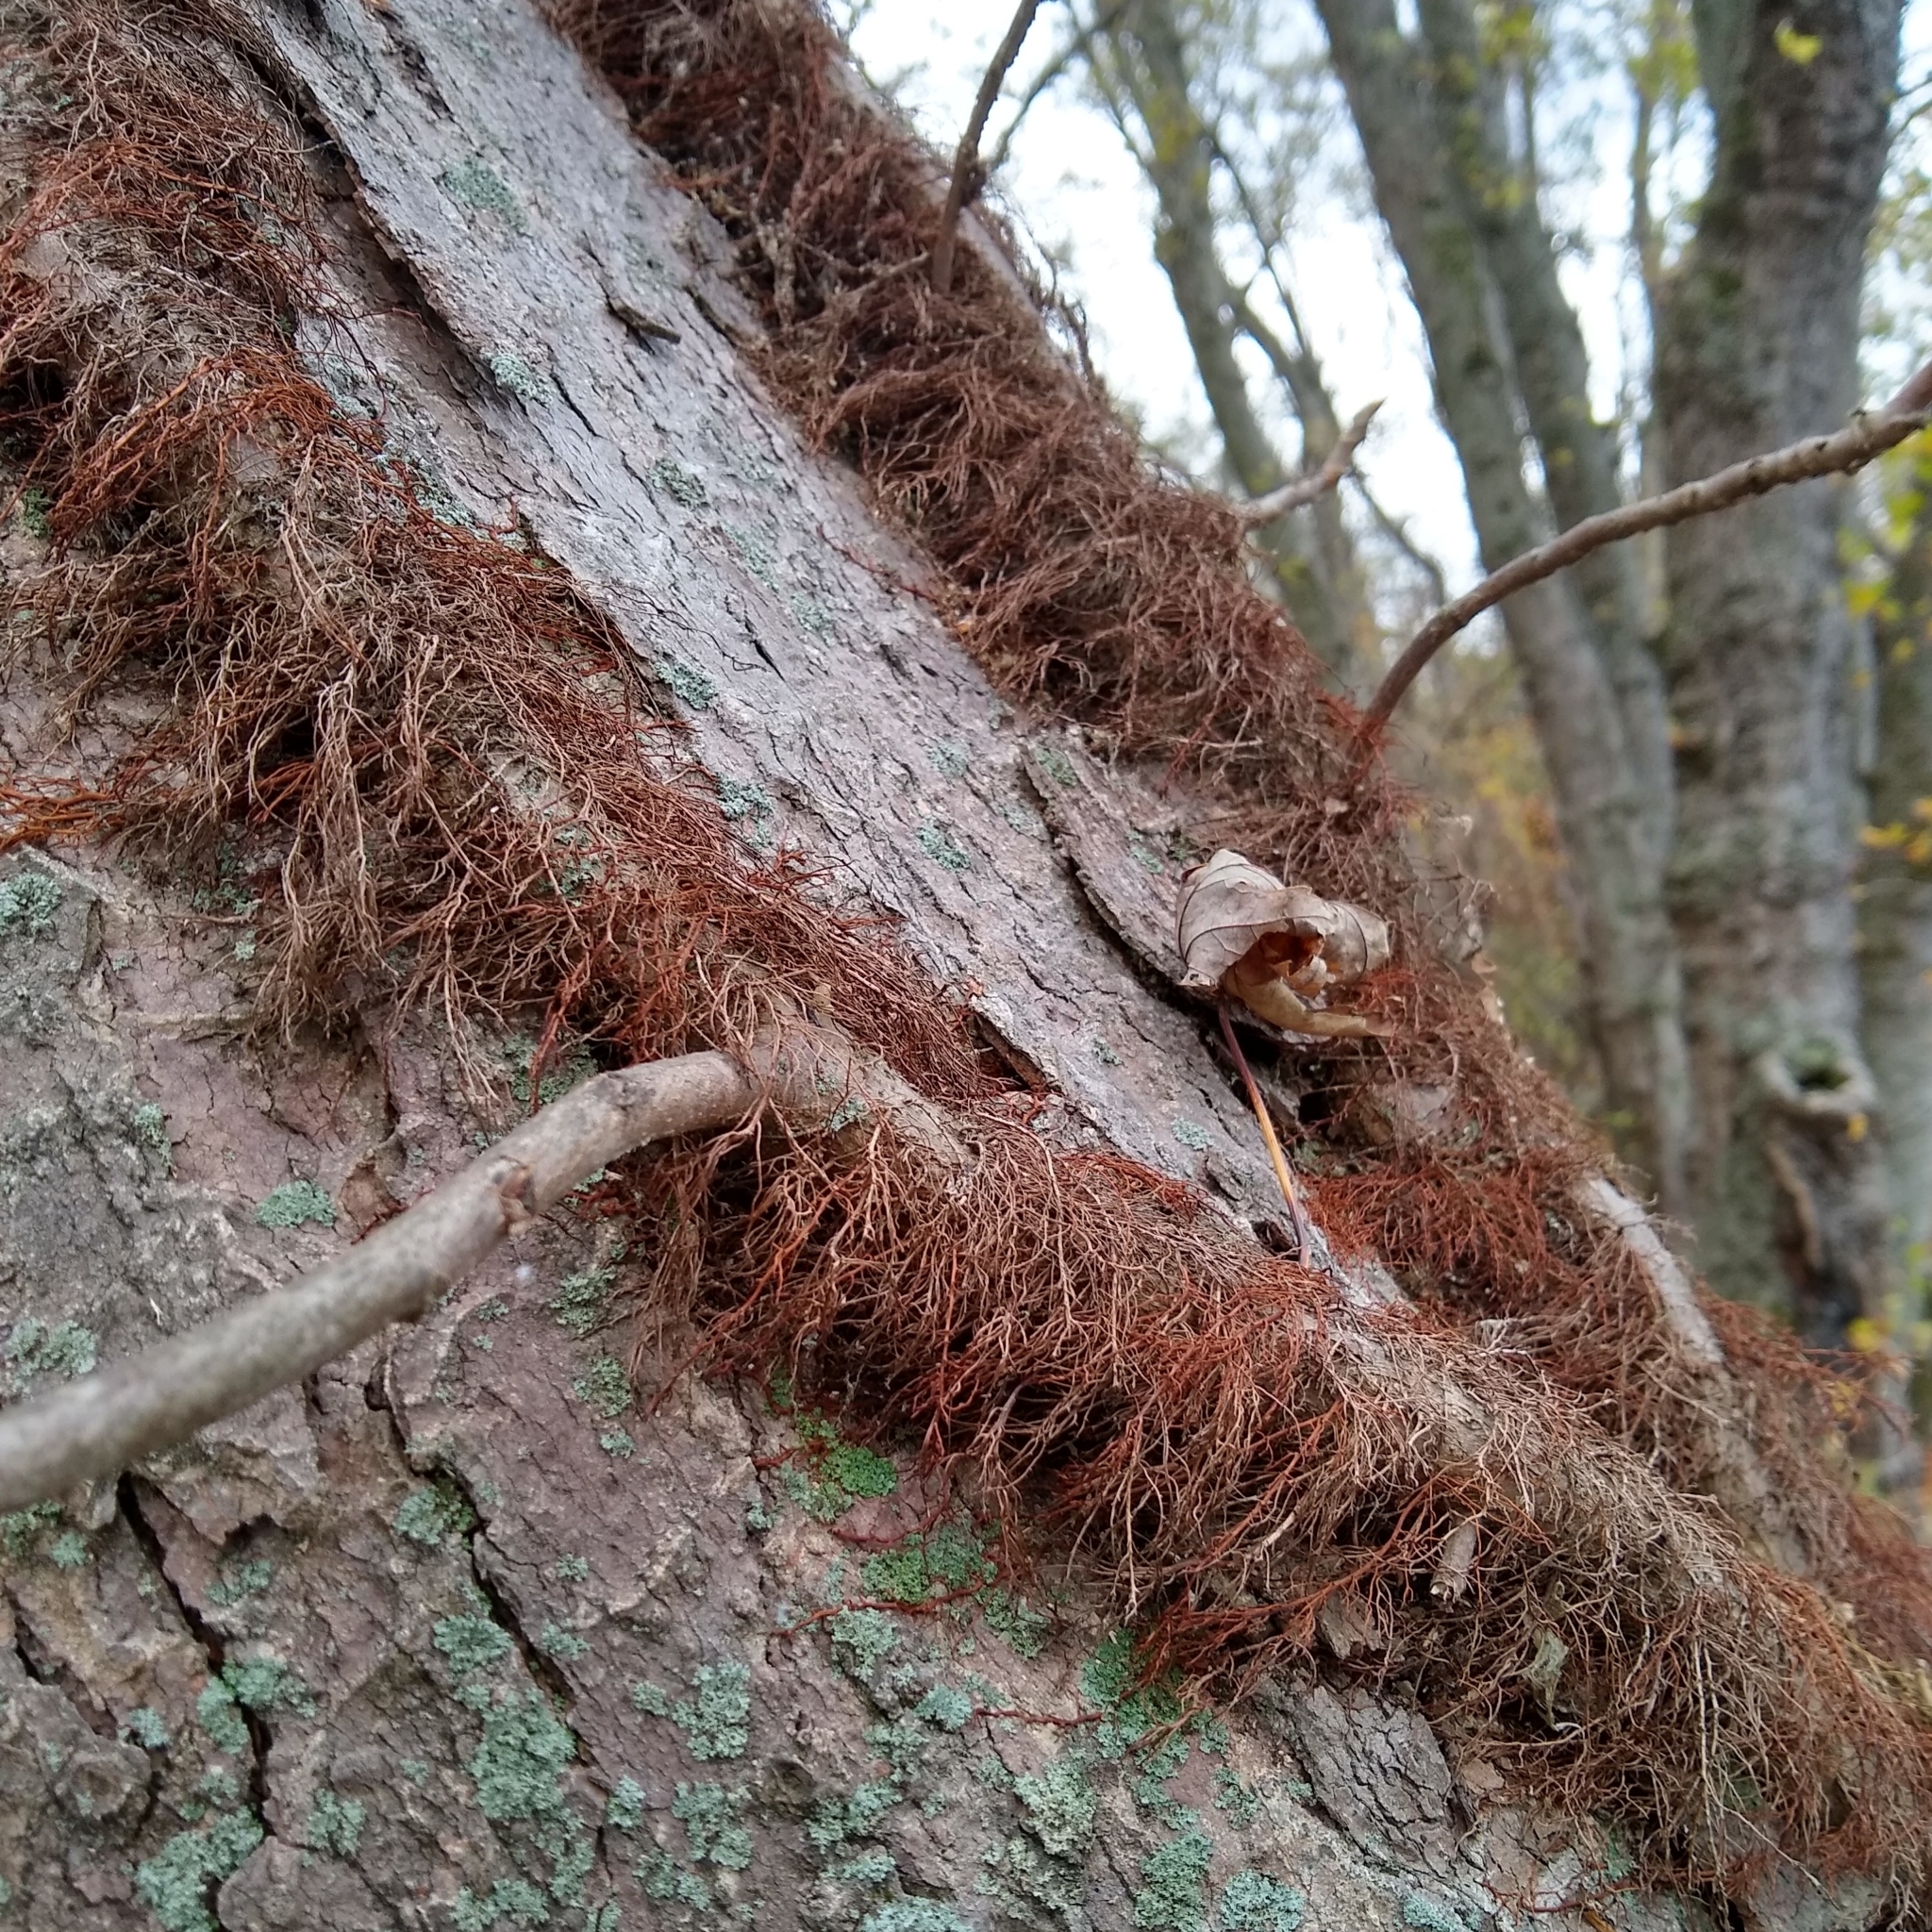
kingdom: Plantae
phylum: Tracheophyta
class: Magnoliopsida
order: Sapindales
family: Anacardiaceae
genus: Toxicodendron
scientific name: Toxicodendron radicans
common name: Poison ivy
